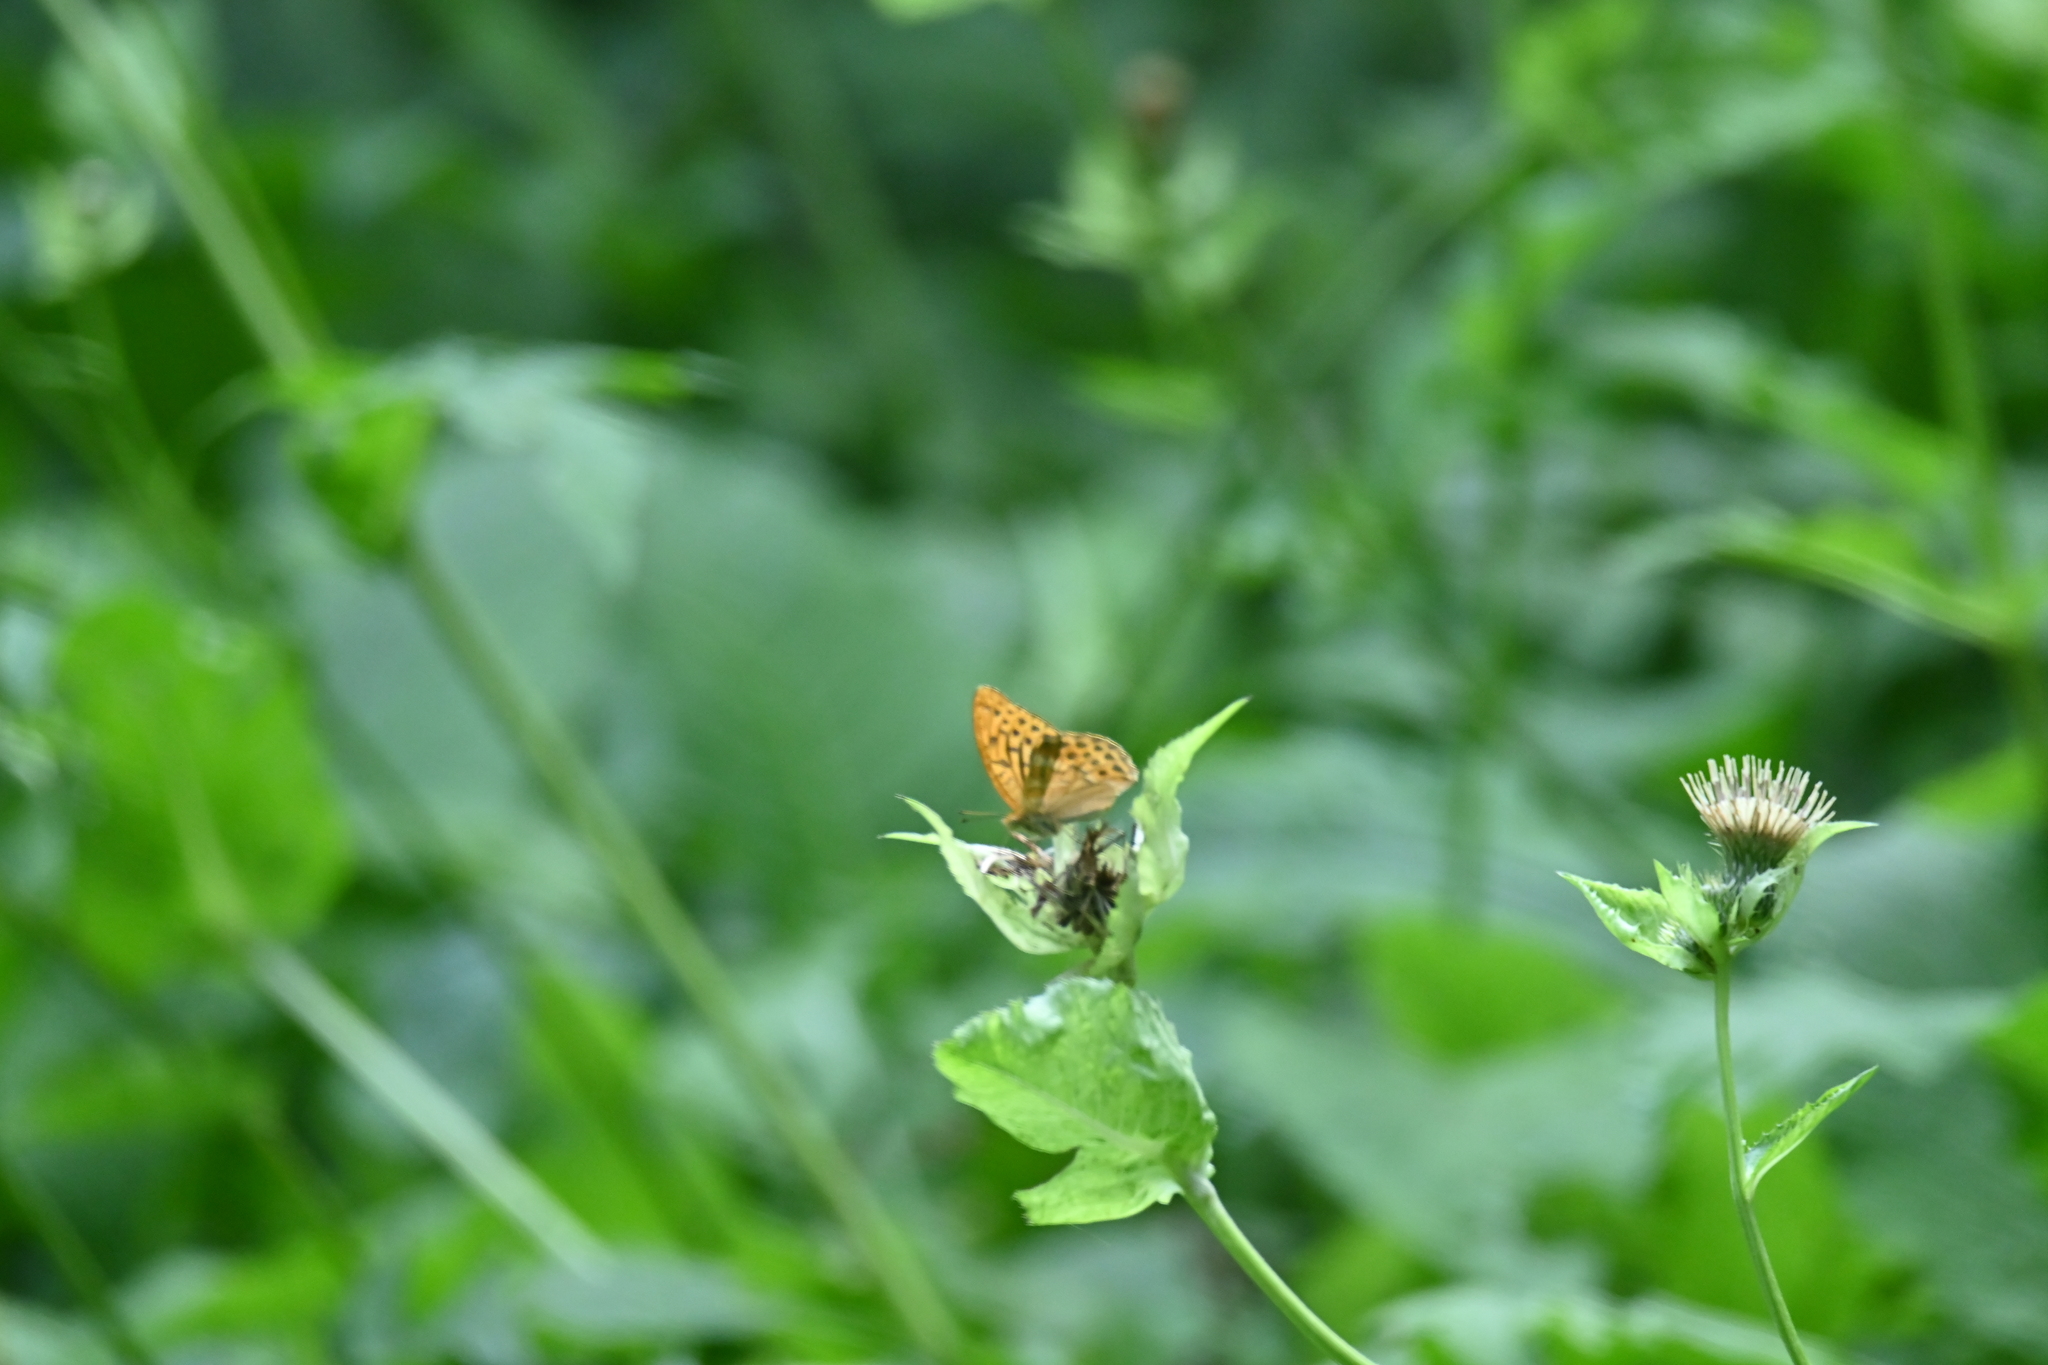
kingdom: Animalia
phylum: Arthropoda
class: Insecta
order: Lepidoptera
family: Nymphalidae
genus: Argynnis
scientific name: Argynnis paphia
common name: Silver-washed fritillary
